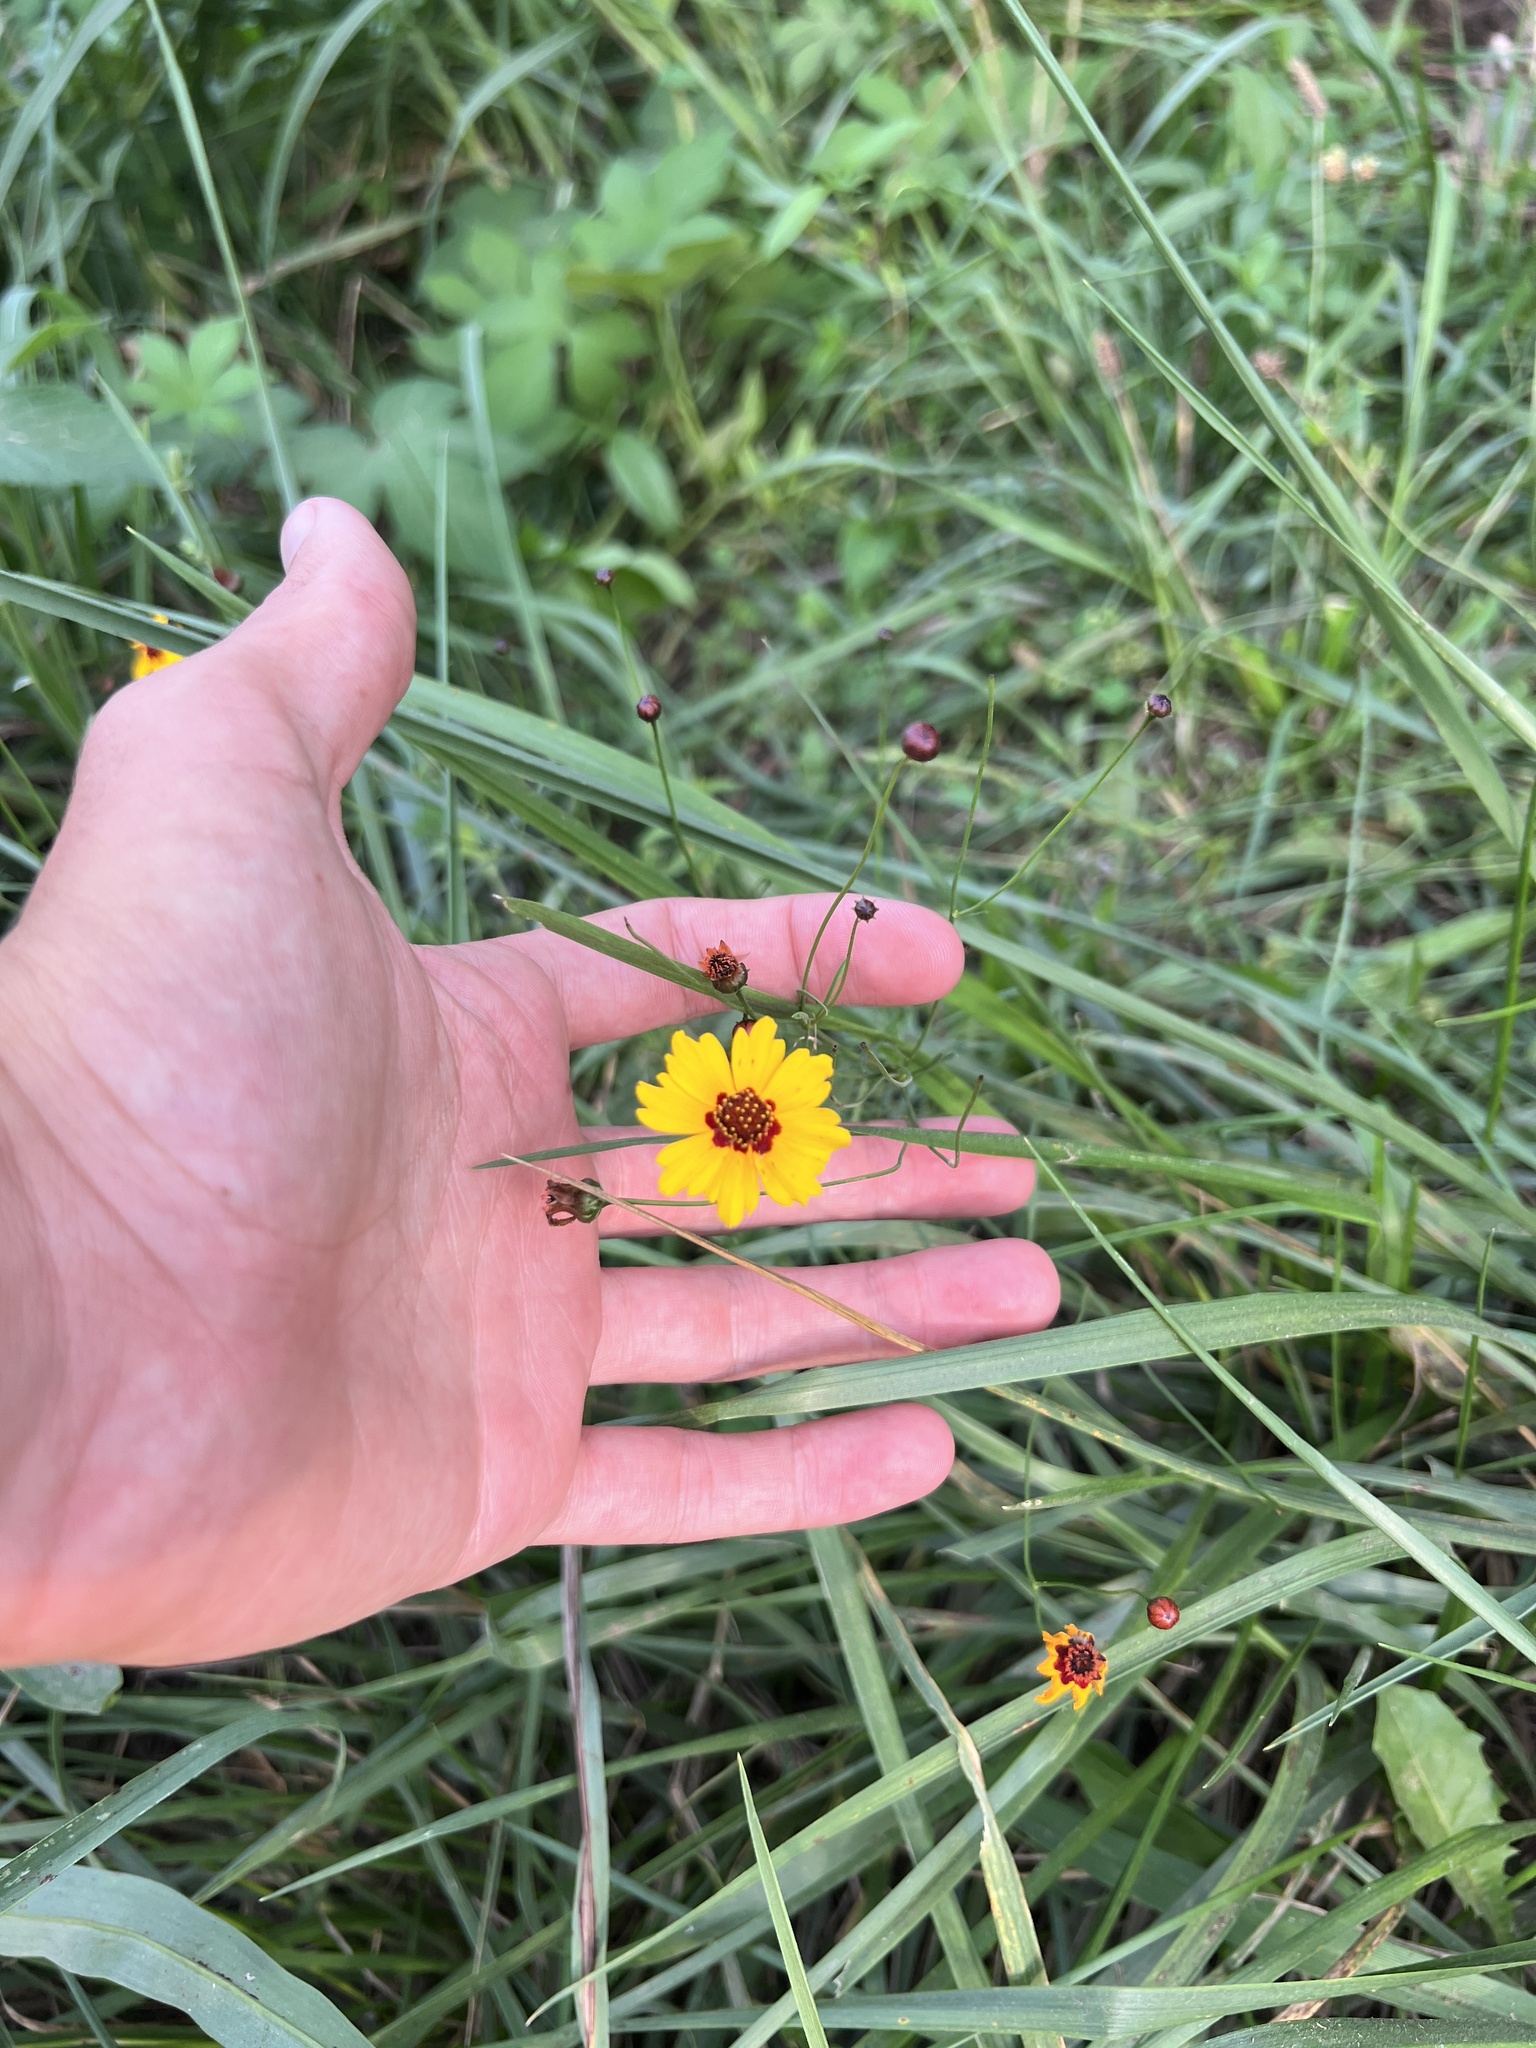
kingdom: Plantae
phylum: Tracheophyta
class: Magnoliopsida
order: Asterales
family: Asteraceae
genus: Coreopsis
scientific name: Coreopsis tinctoria
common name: Garden tickseed
